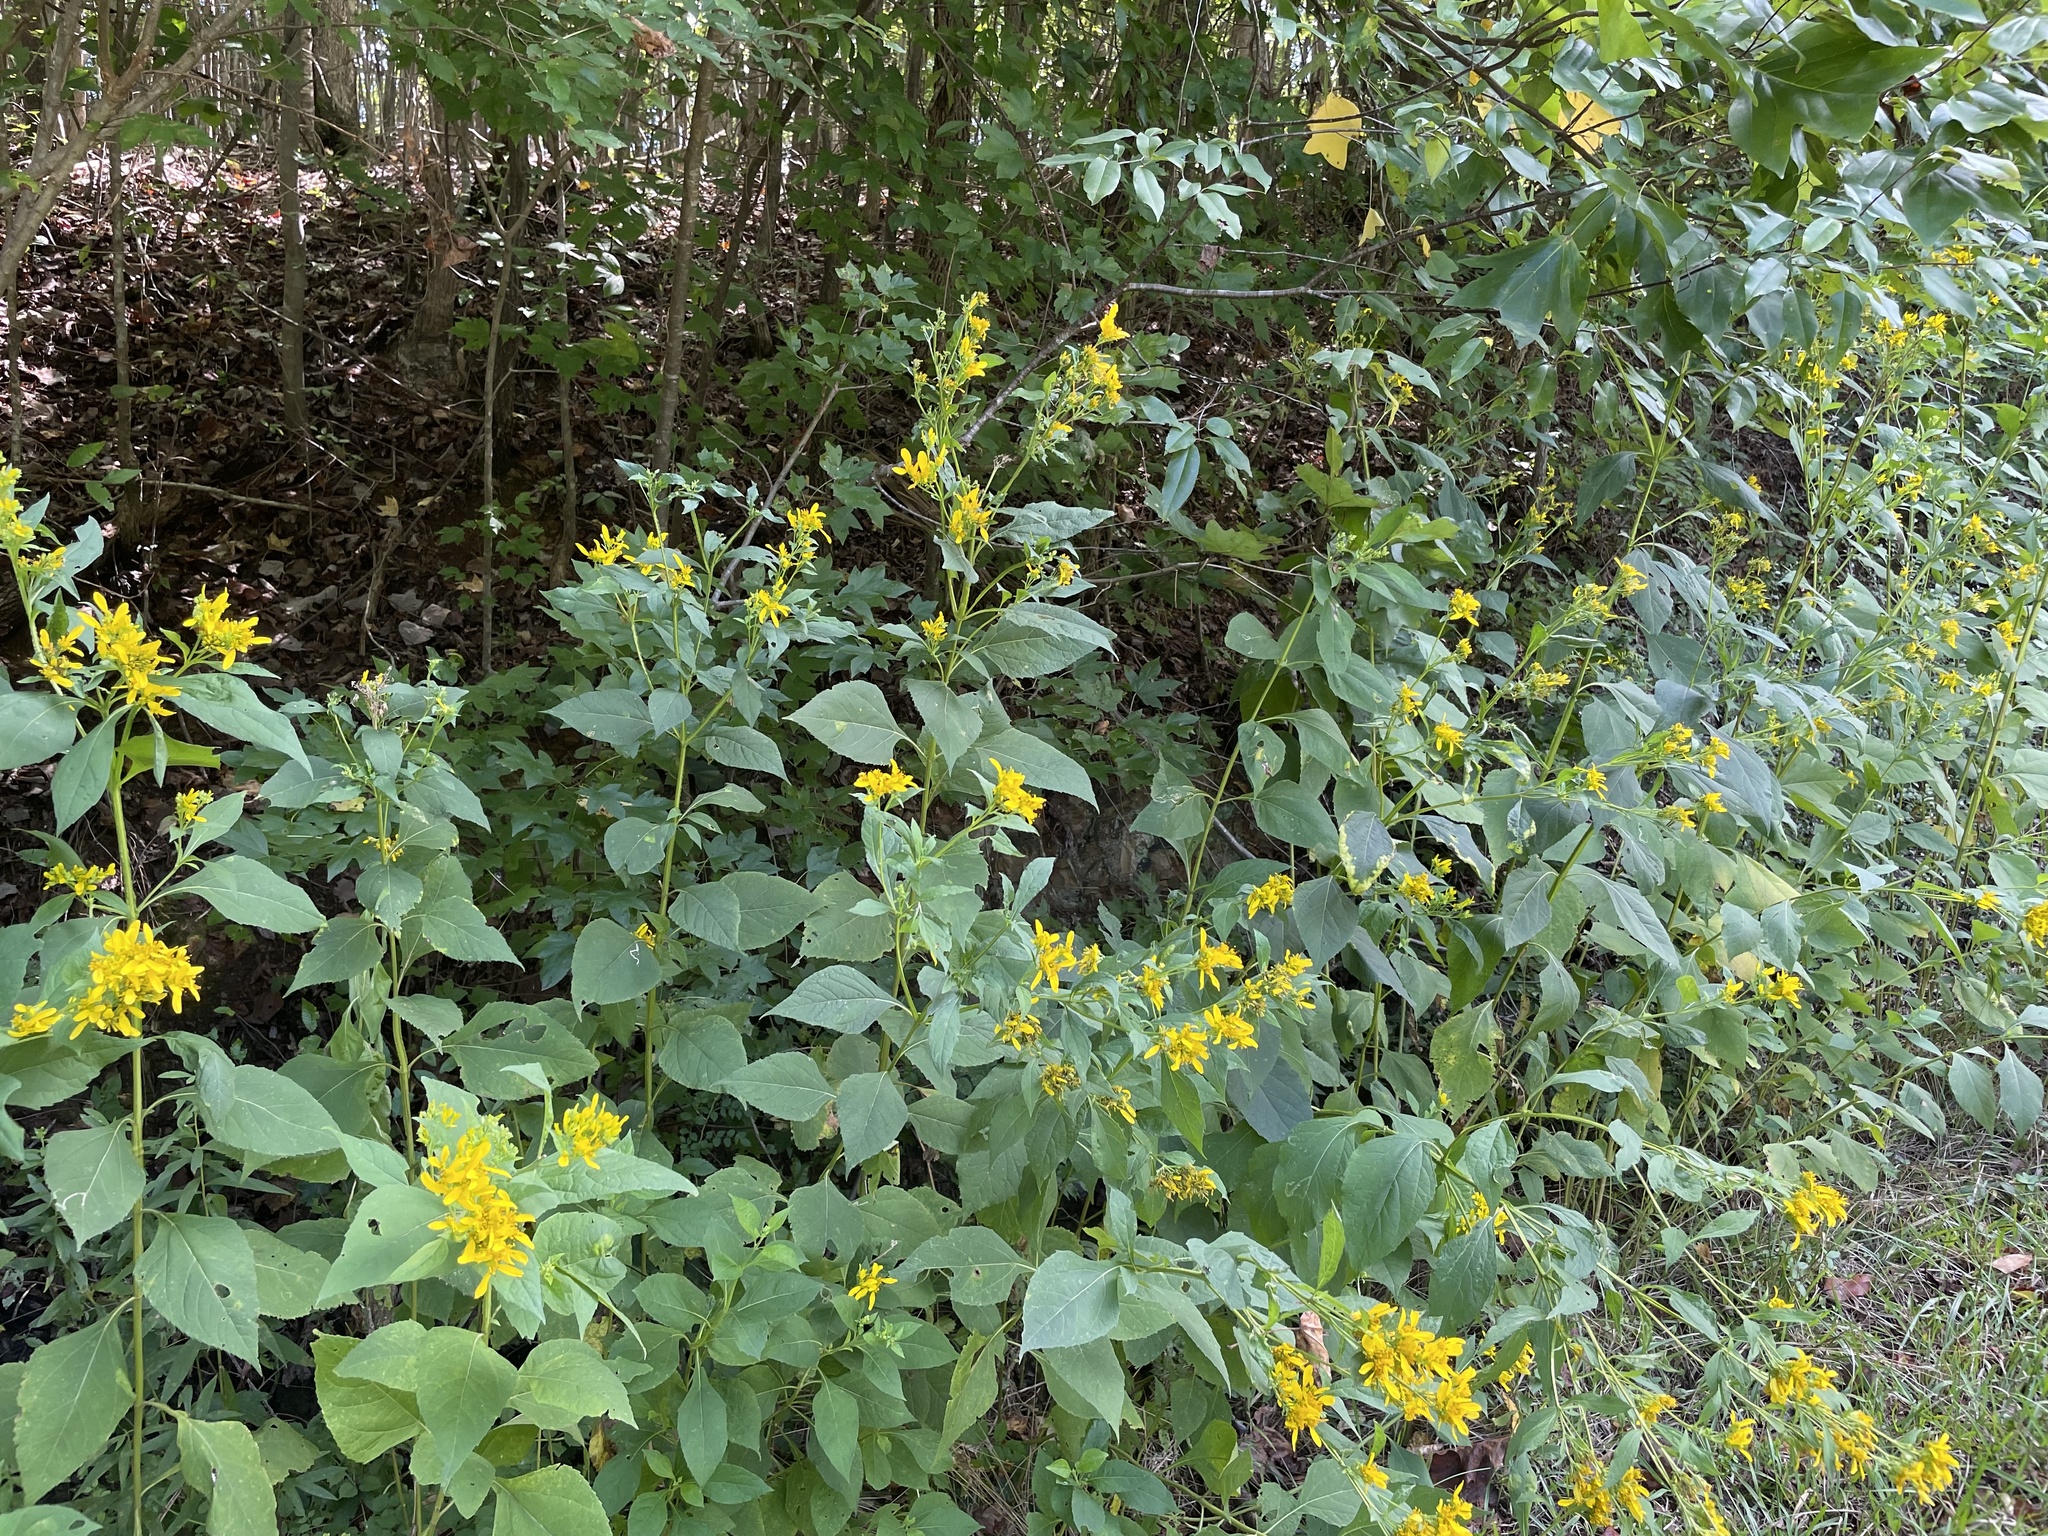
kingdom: Plantae
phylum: Tracheophyta
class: Magnoliopsida
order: Asterales
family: Asteraceae
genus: Verbesina
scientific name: Verbesina occidentalis
